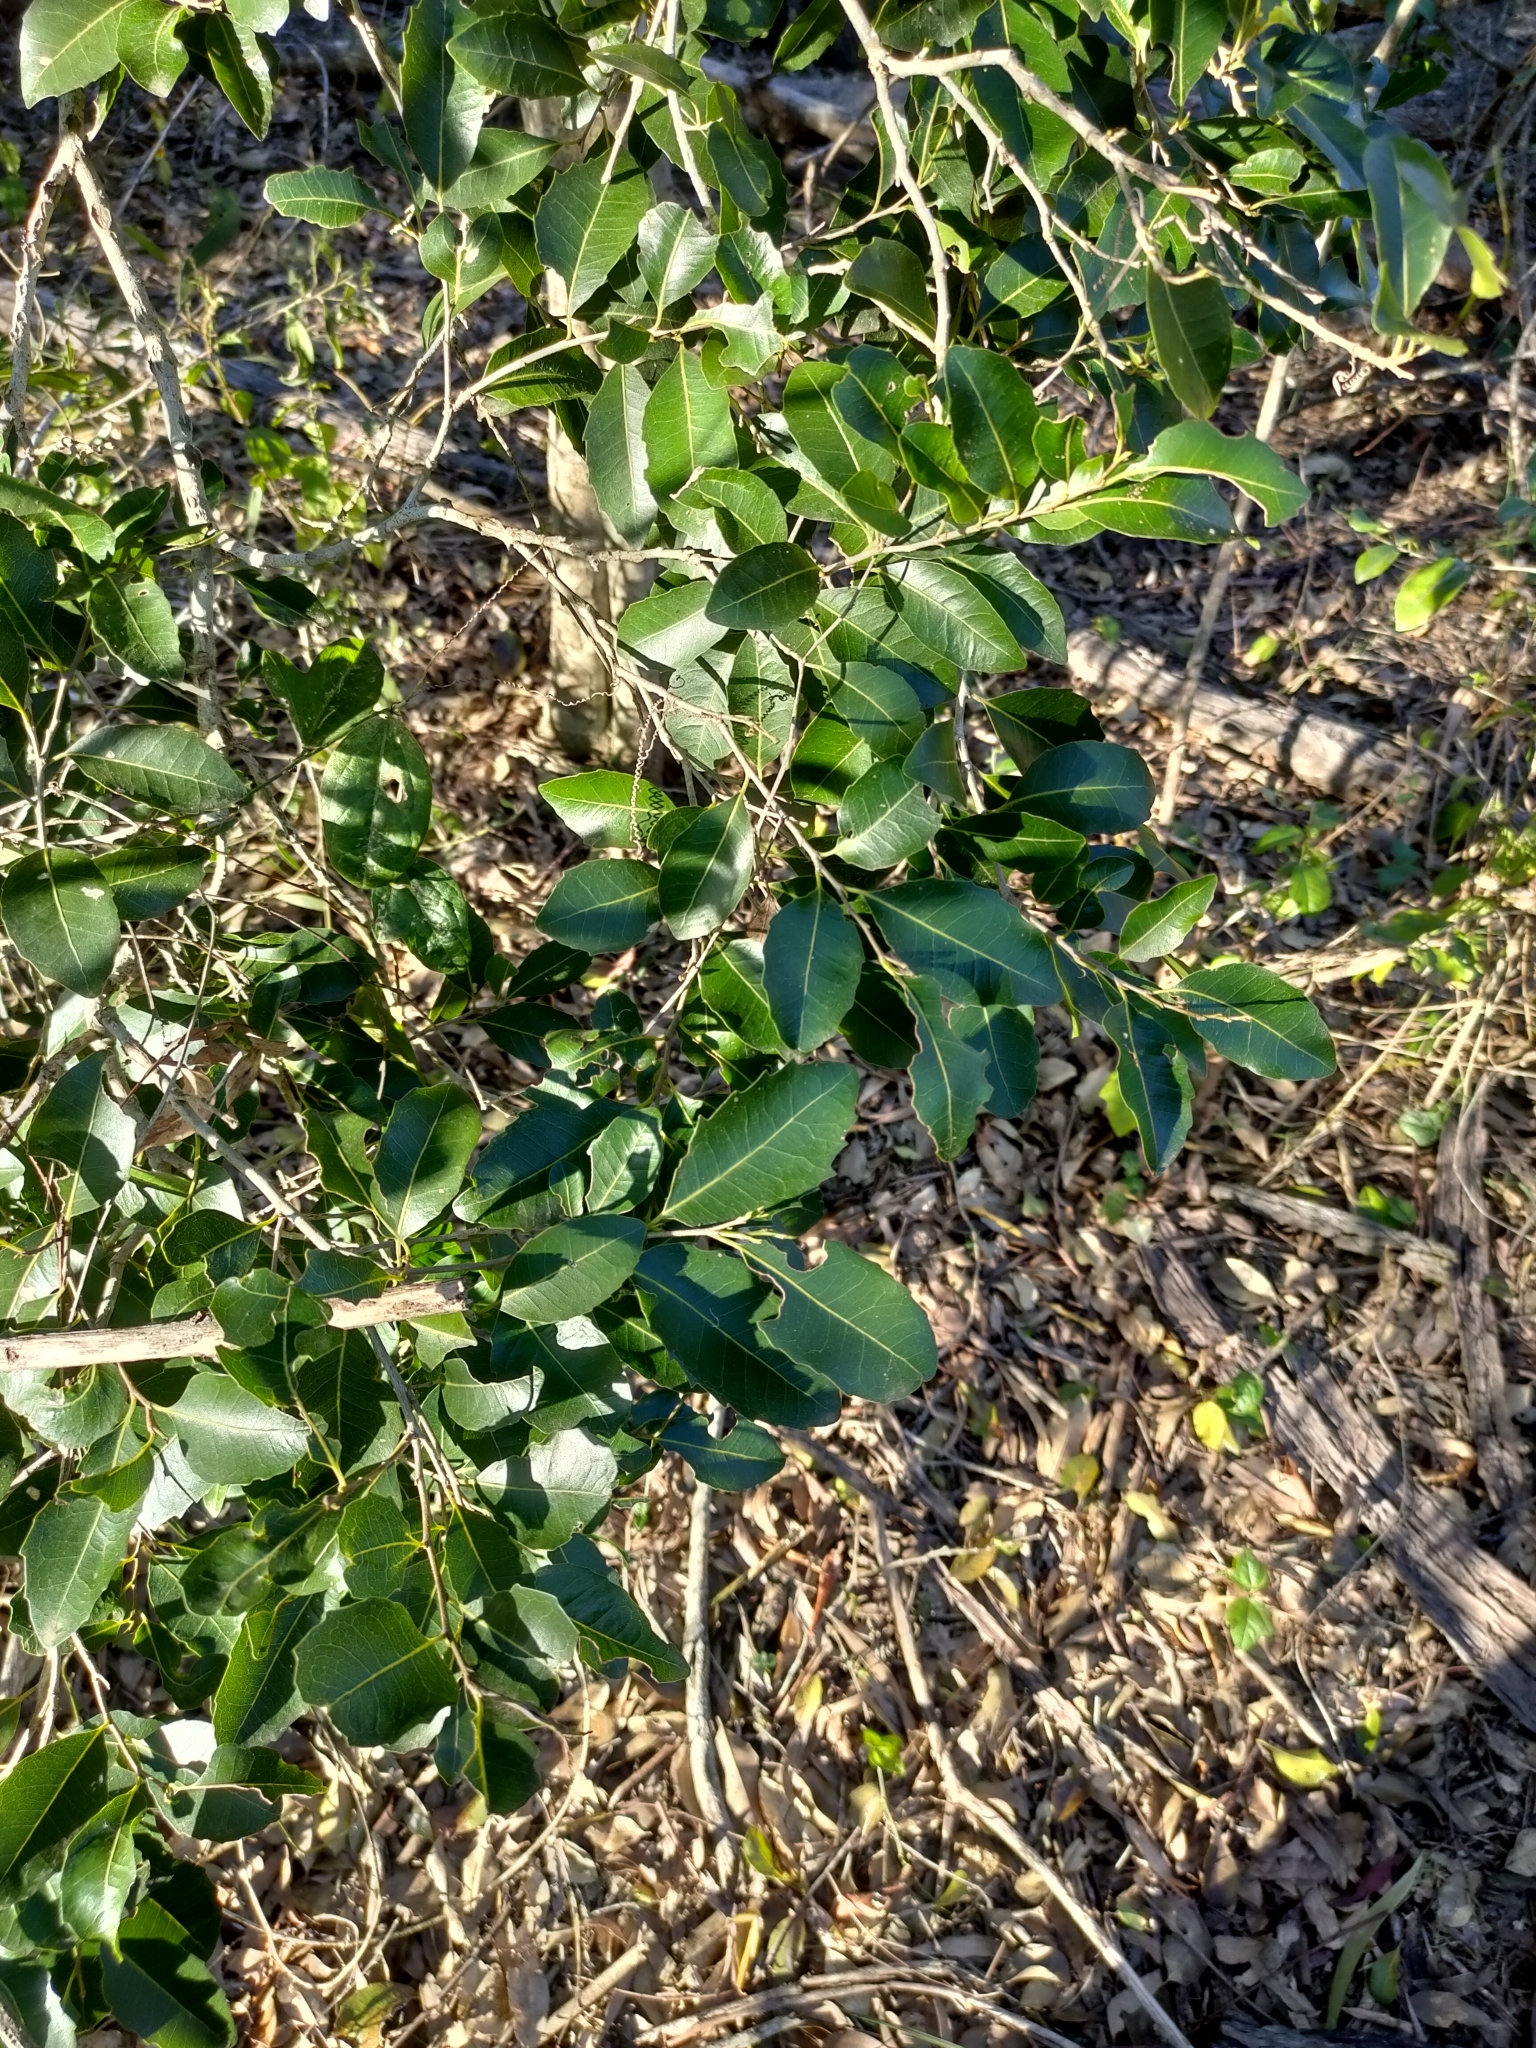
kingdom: Plantae
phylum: Tracheophyta
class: Magnoliopsida
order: Malpighiales
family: Putranjivaceae
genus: Drypetes
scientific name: Drypetes deplanchei
